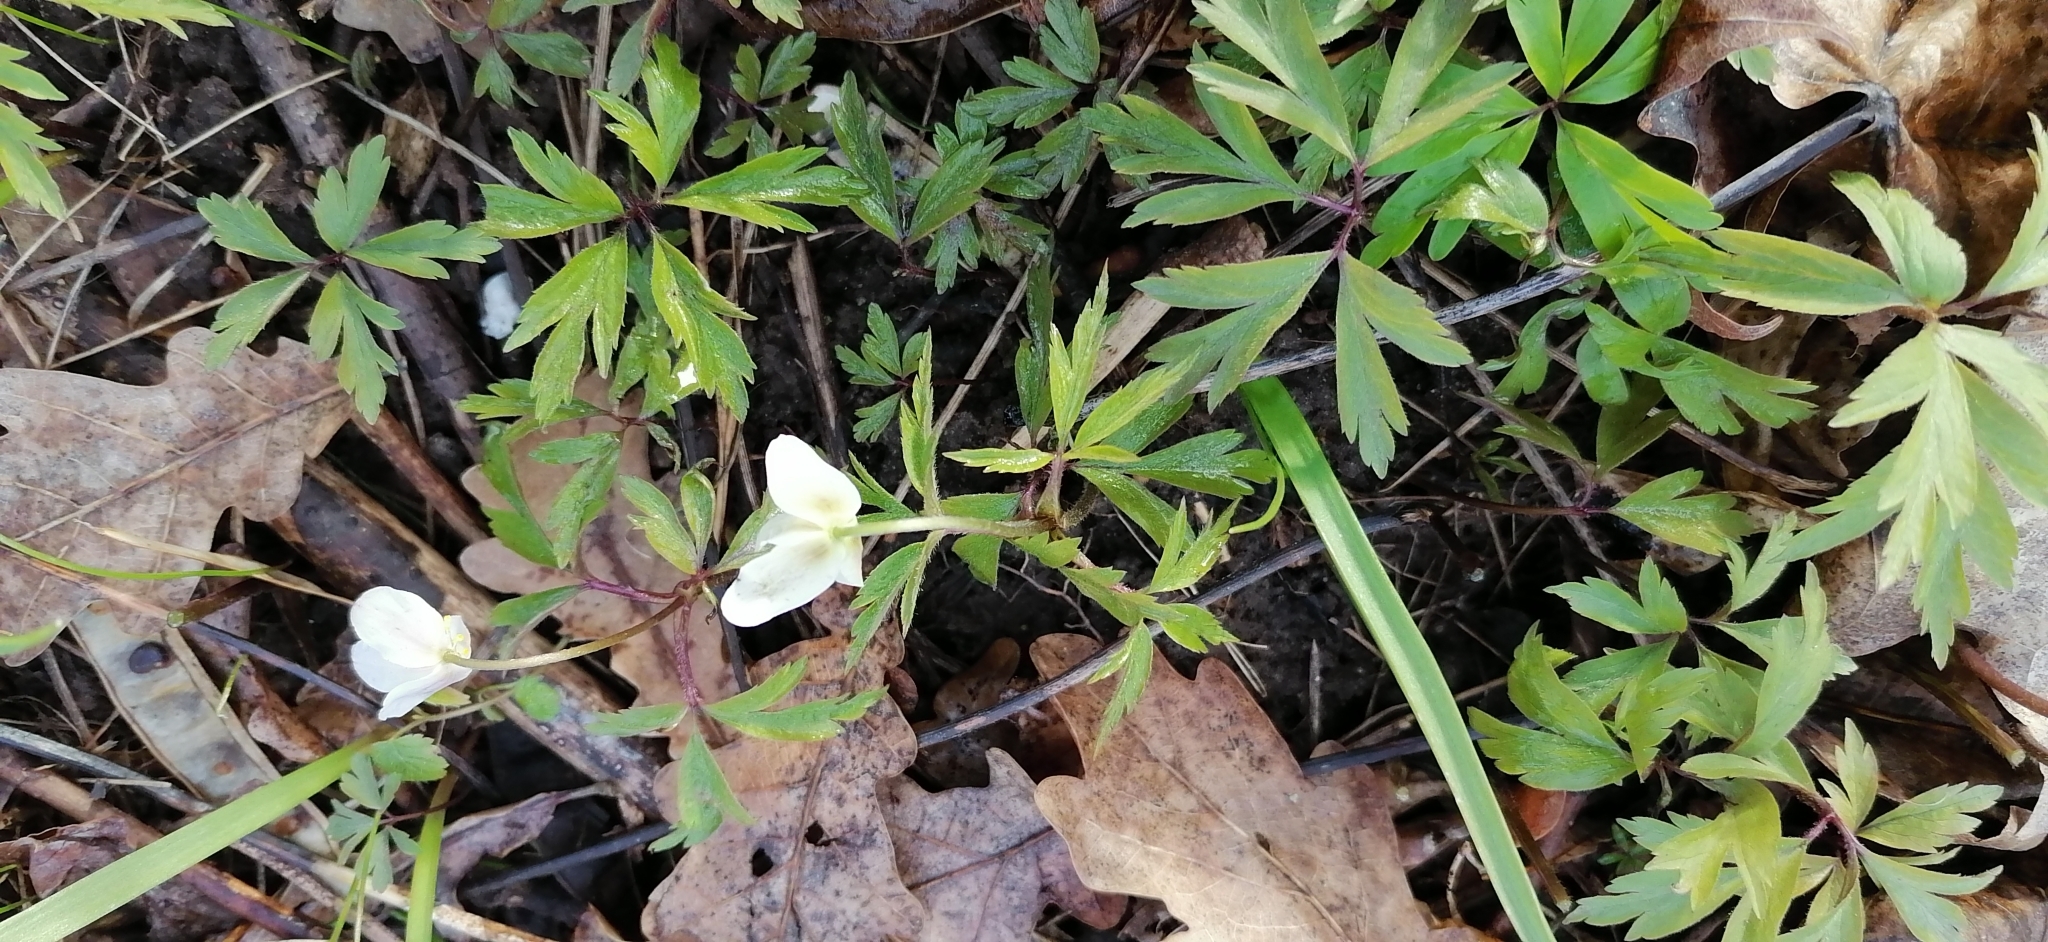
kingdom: Plantae
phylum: Tracheophyta
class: Magnoliopsida
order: Ranunculales
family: Ranunculaceae
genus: Anemone
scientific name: Anemone nemorosa
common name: Wood anemone
